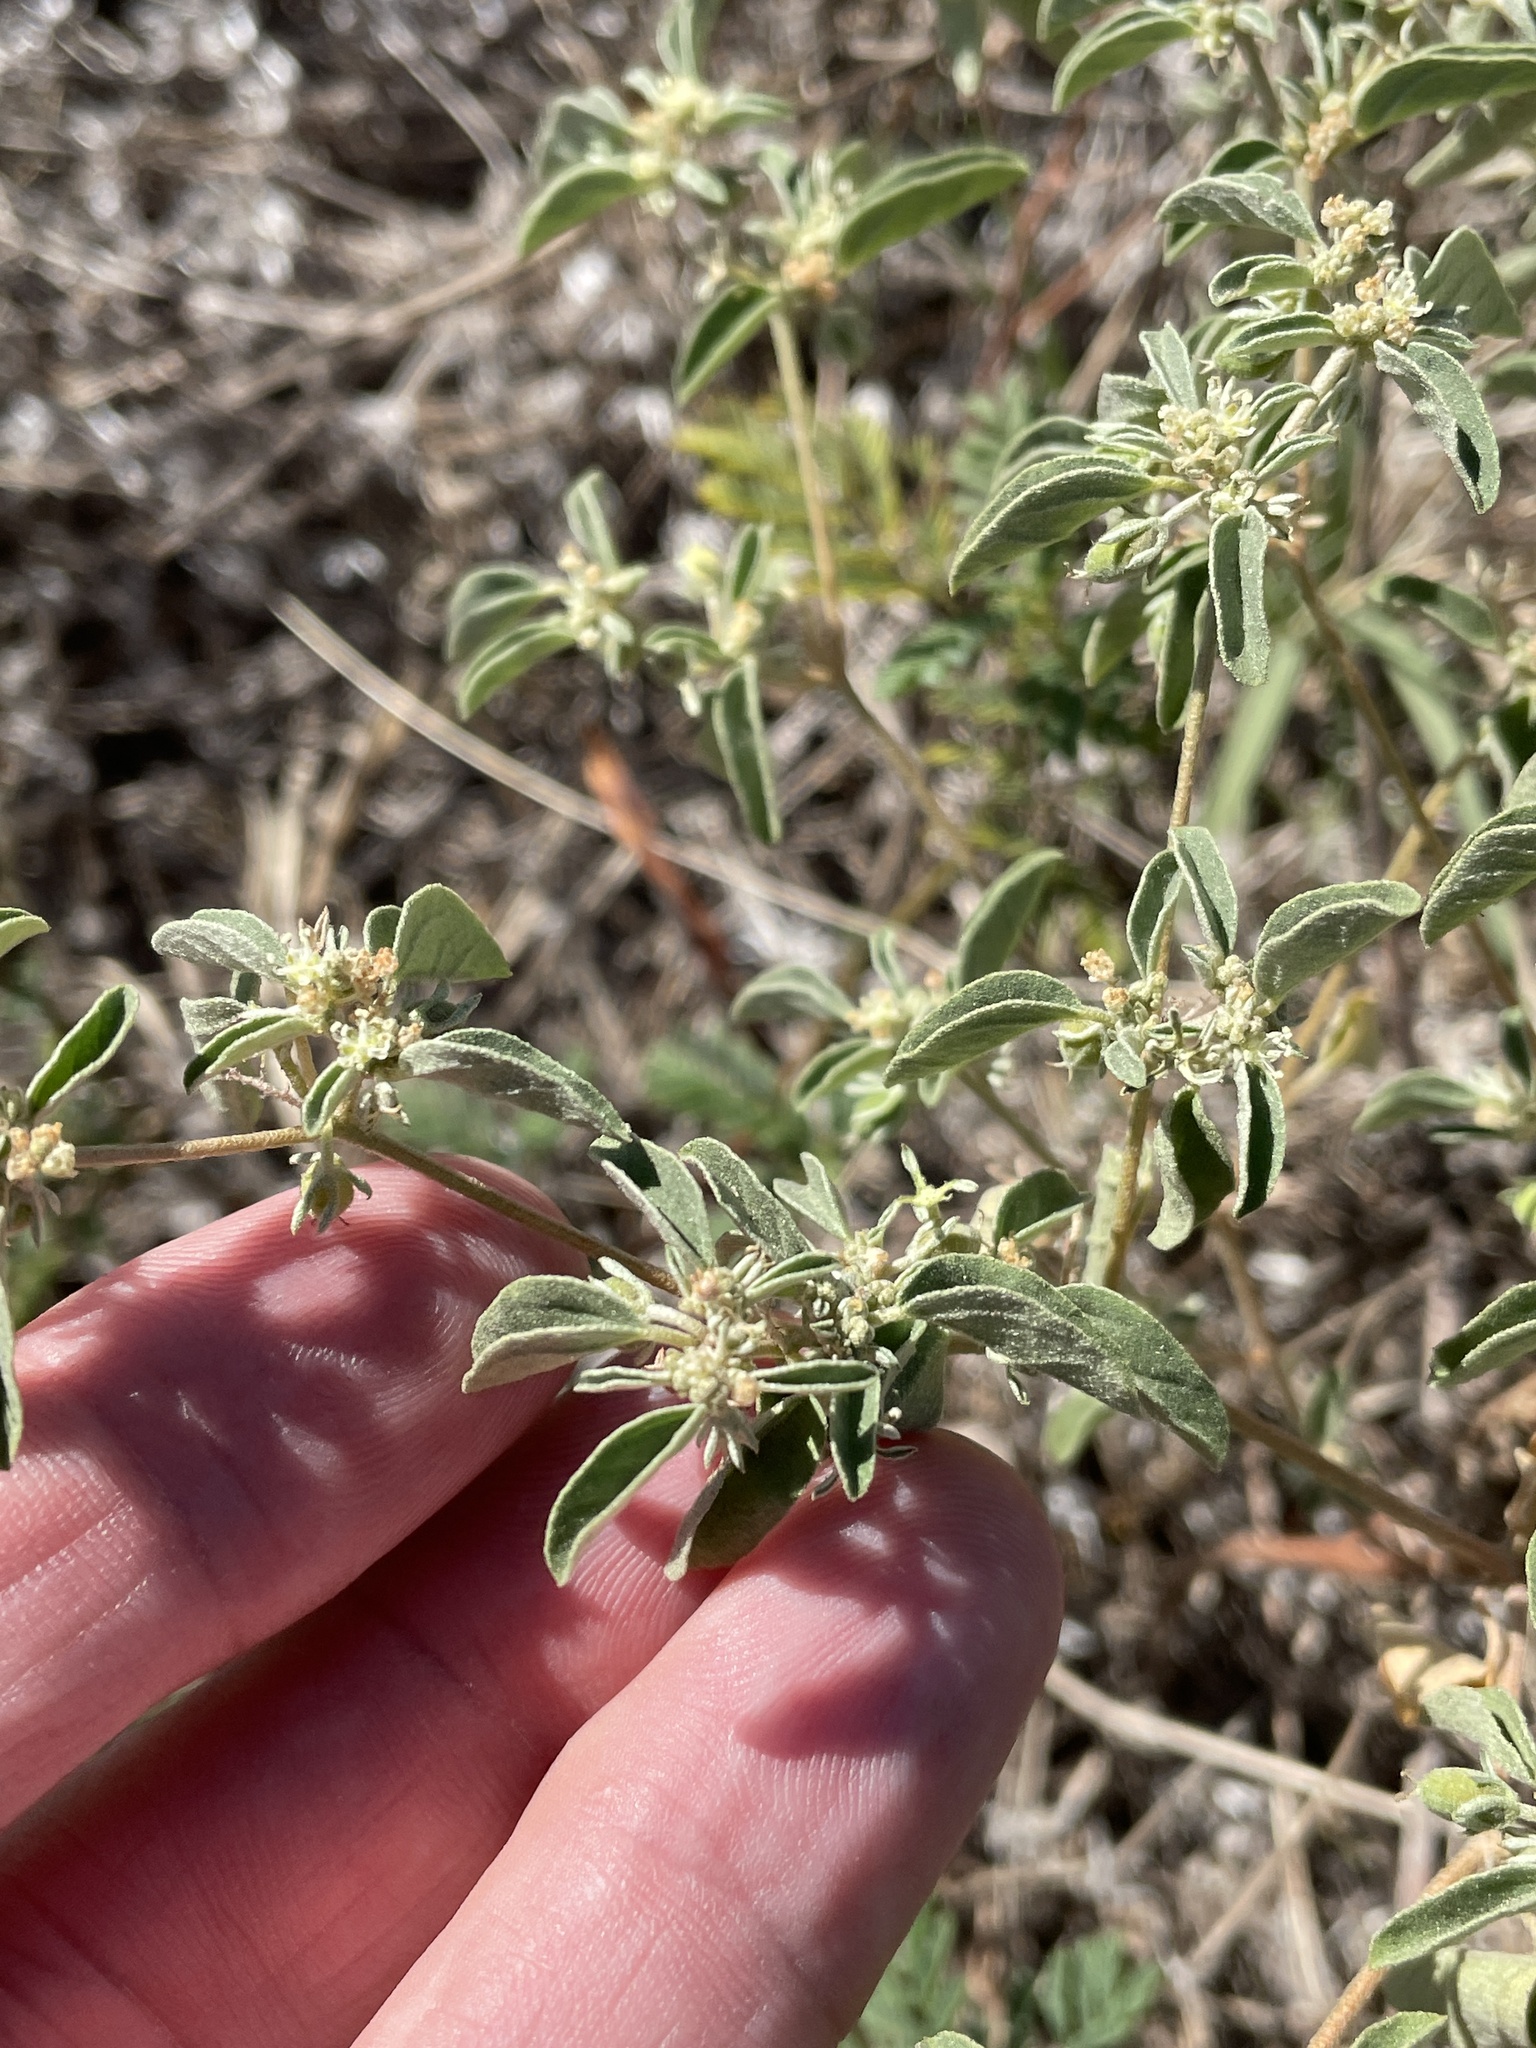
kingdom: Plantae
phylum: Tracheophyta
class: Magnoliopsida
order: Malpighiales
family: Euphorbiaceae
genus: Croton
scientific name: Croton monanthogynus
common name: One-seed croton
